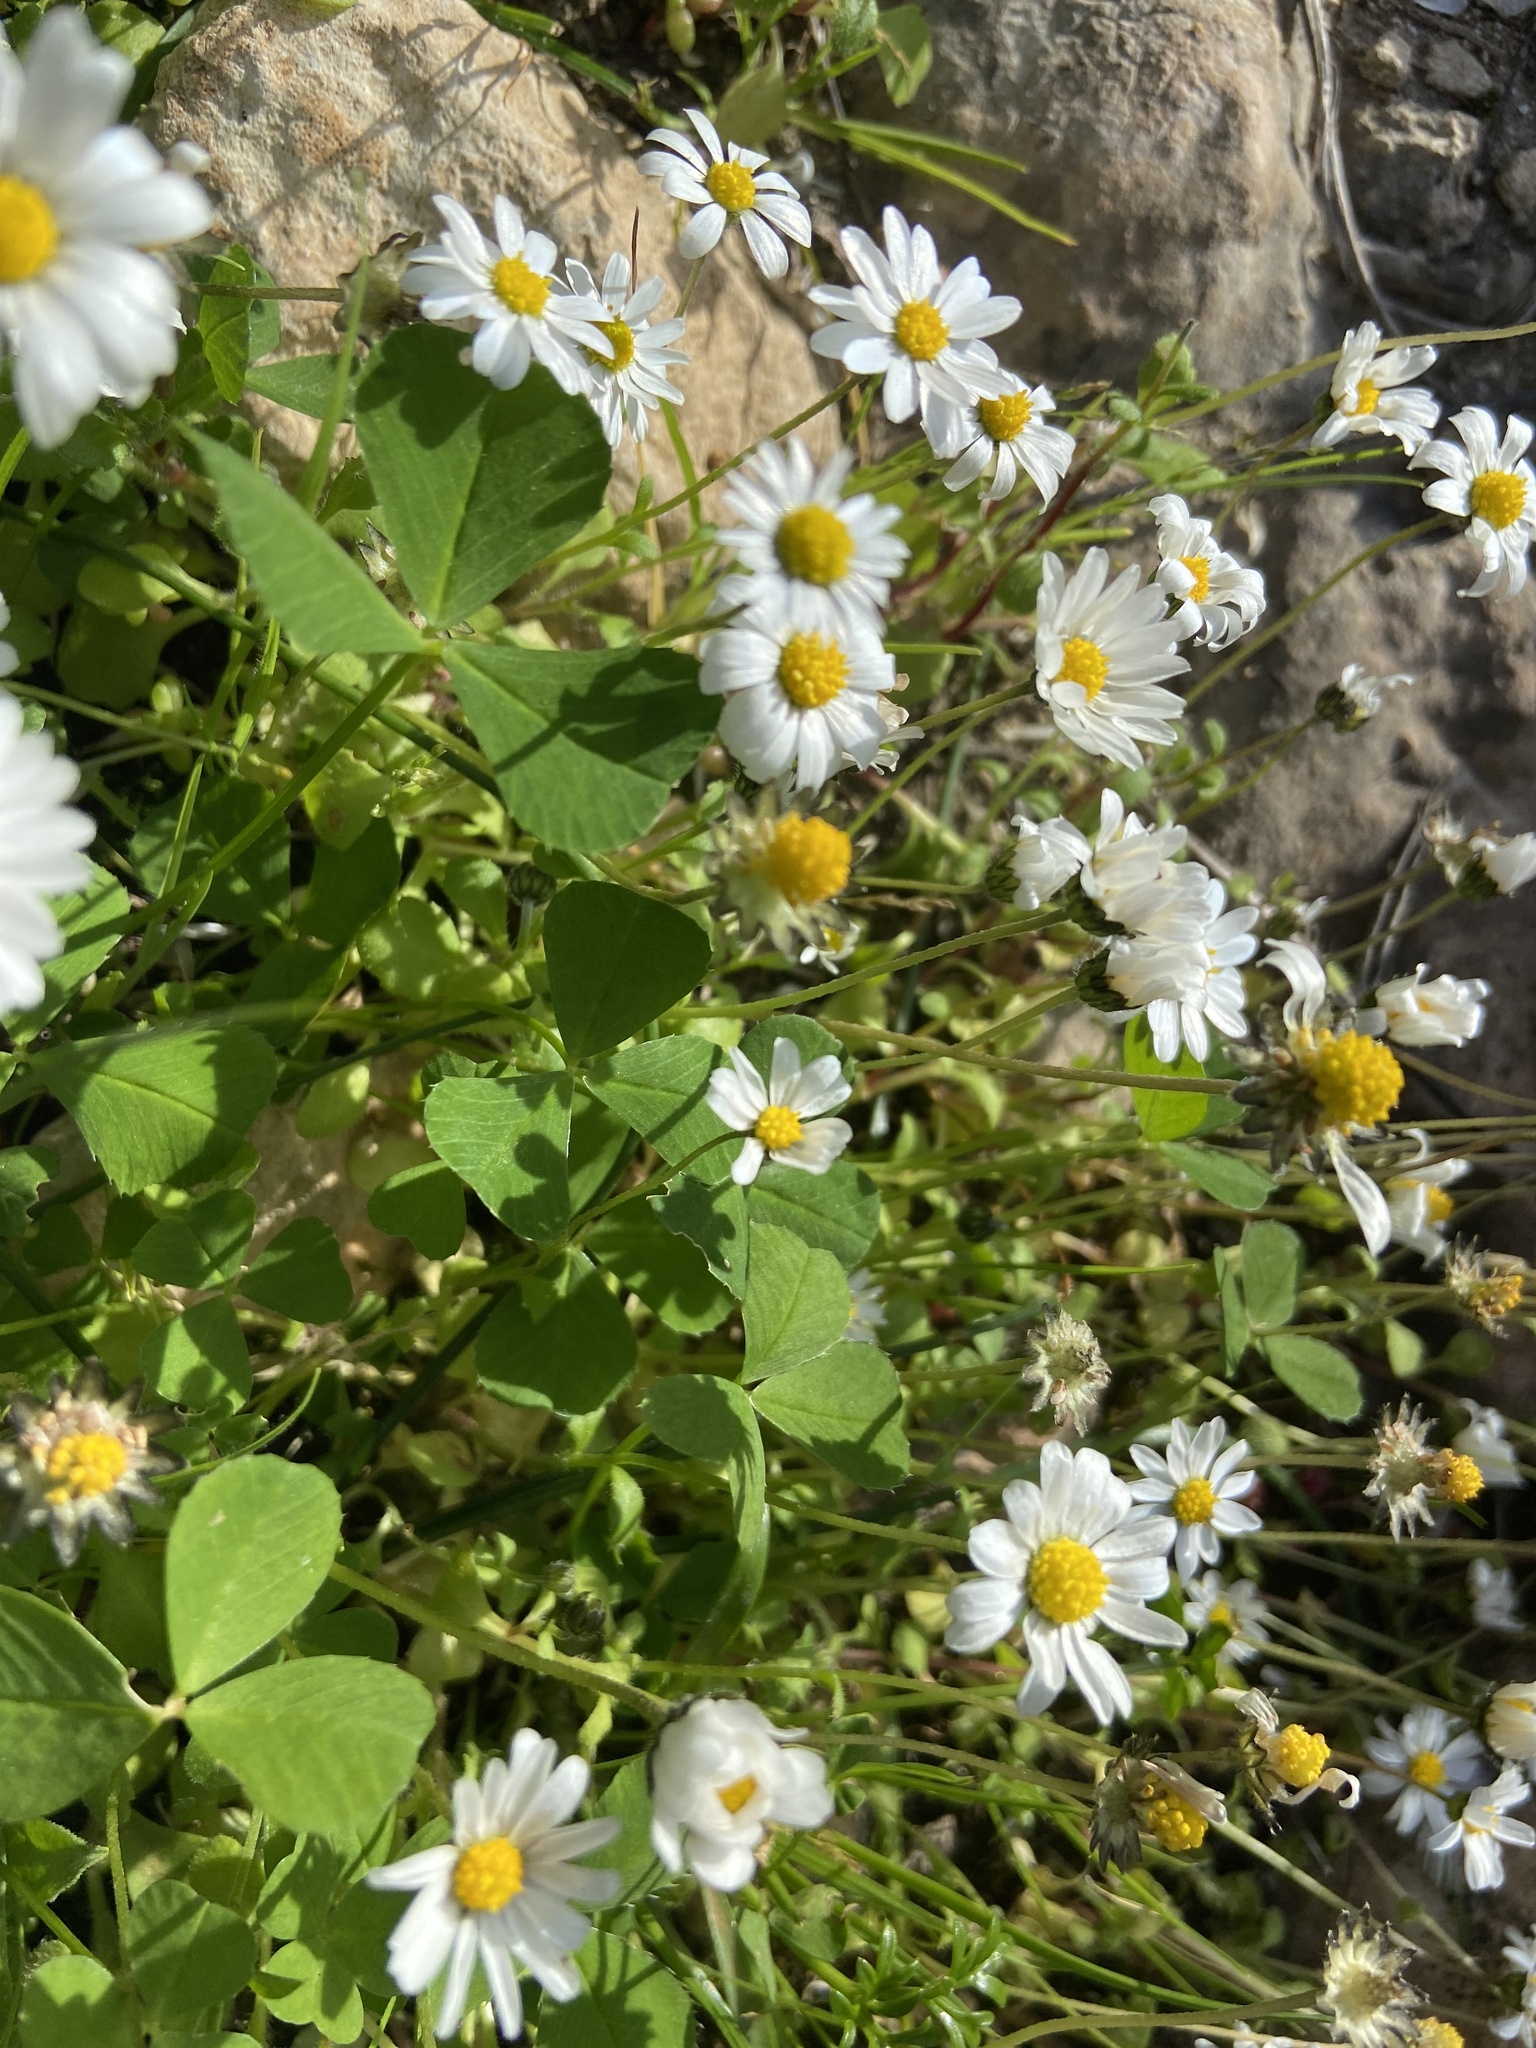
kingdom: Plantae
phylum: Tracheophyta
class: Magnoliopsida
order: Asterales
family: Asteraceae
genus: Bellis
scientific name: Bellis annua
